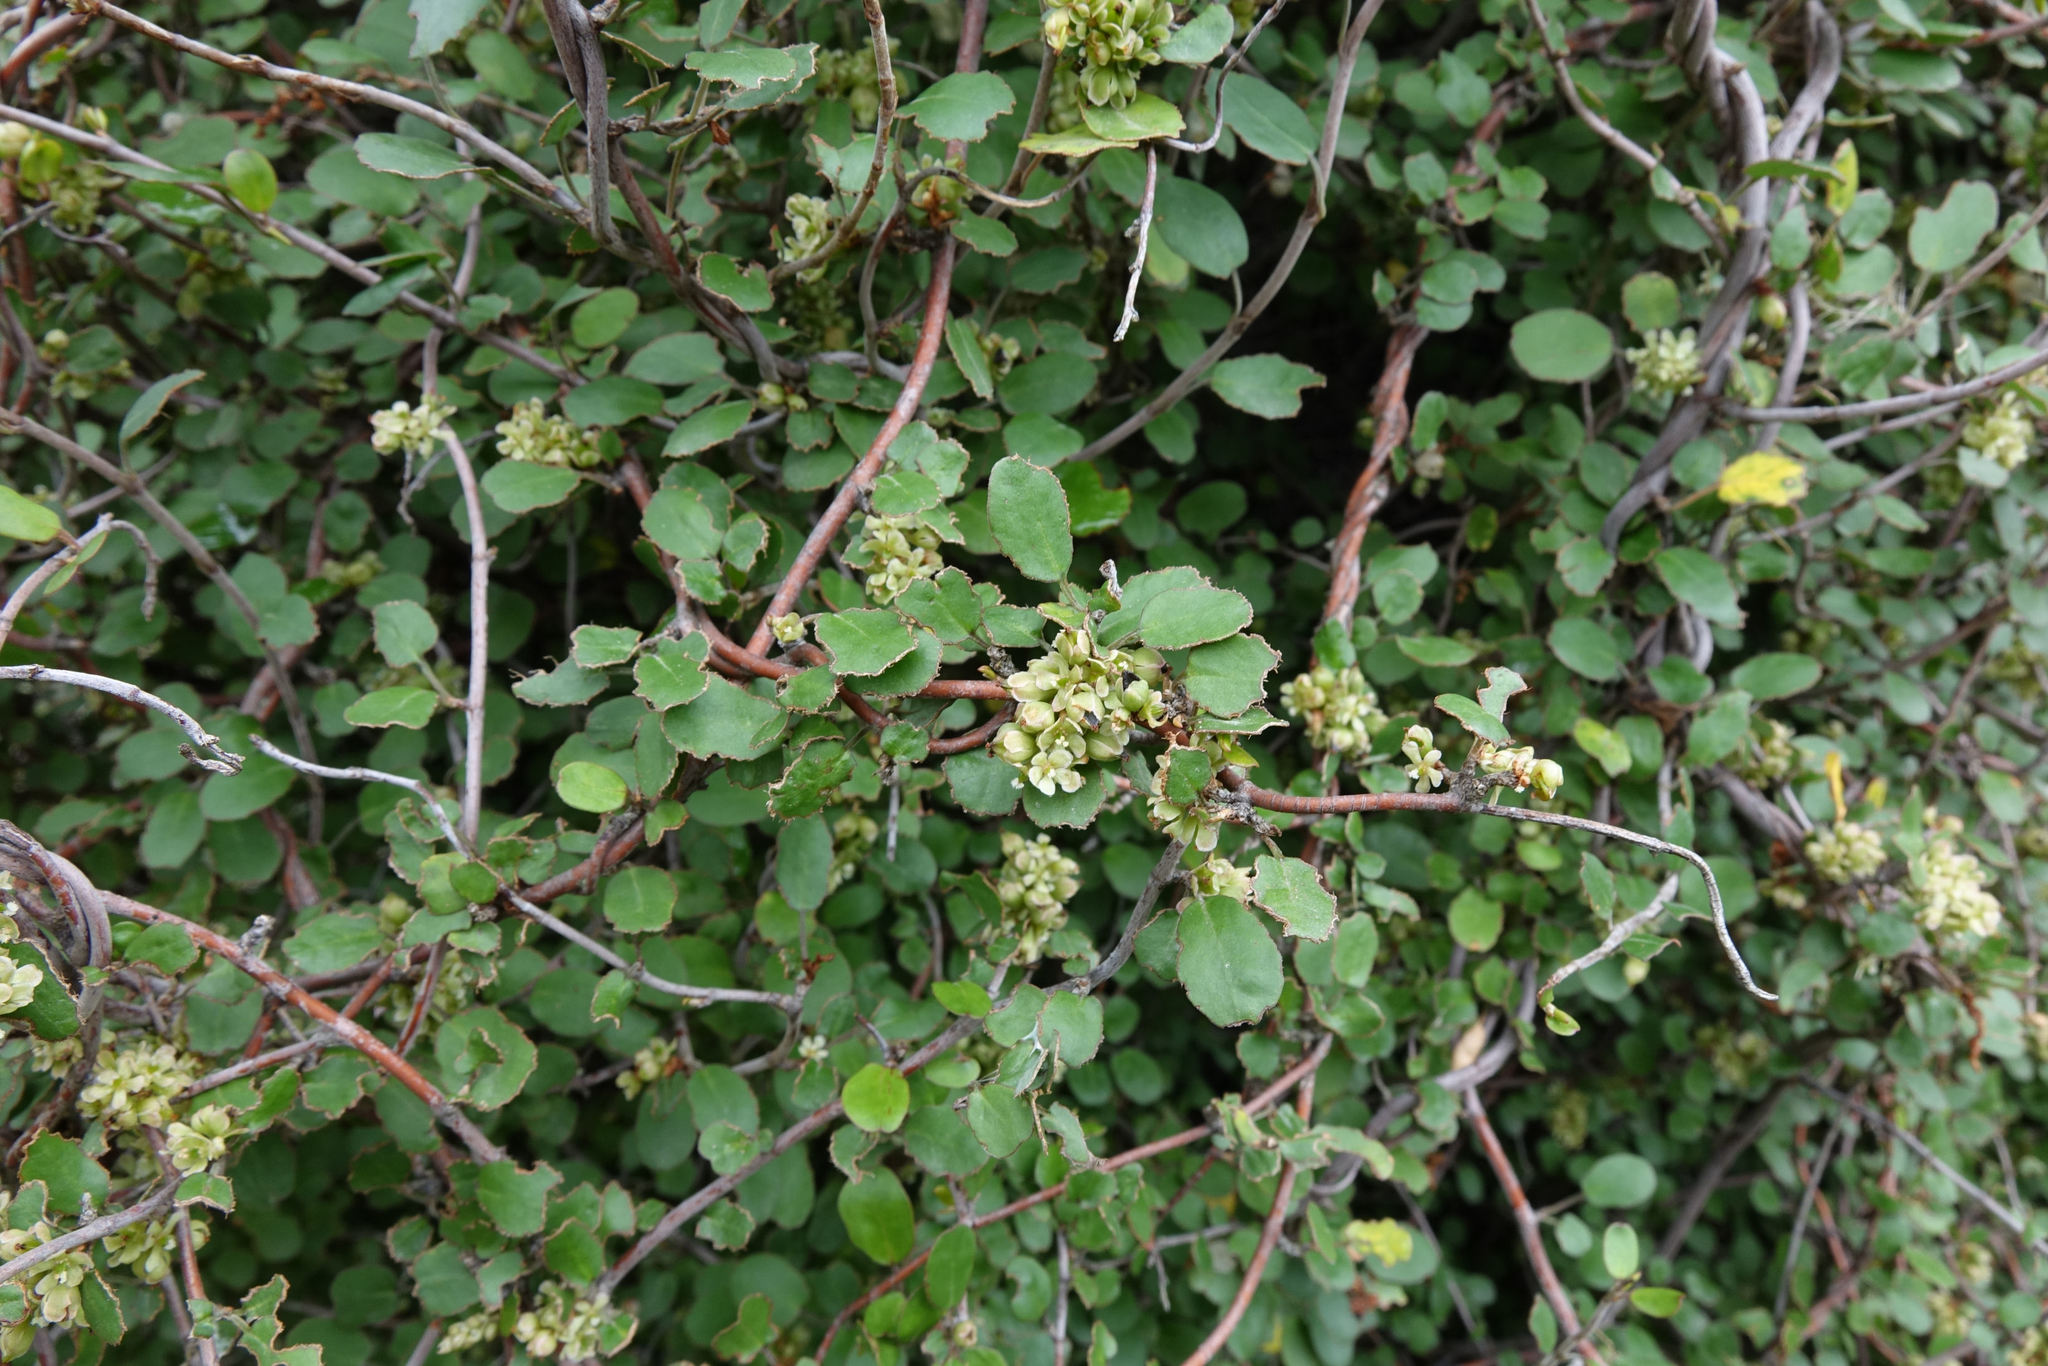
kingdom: Plantae
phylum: Tracheophyta
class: Magnoliopsida
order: Caryophyllales
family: Polygonaceae
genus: Muehlenbeckia
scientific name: Muehlenbeckia complexa
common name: Wireplant
